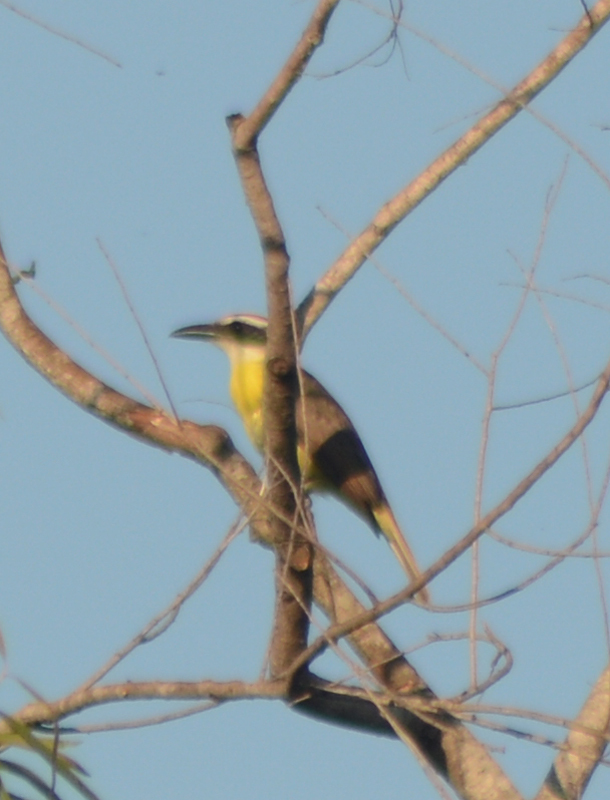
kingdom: Animalia
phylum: Chordata
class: Aves
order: Passeriformes
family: Tyrannidae
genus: Megarynchus
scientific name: Megarynchus pitangua
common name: Boat-billed flycatcher
